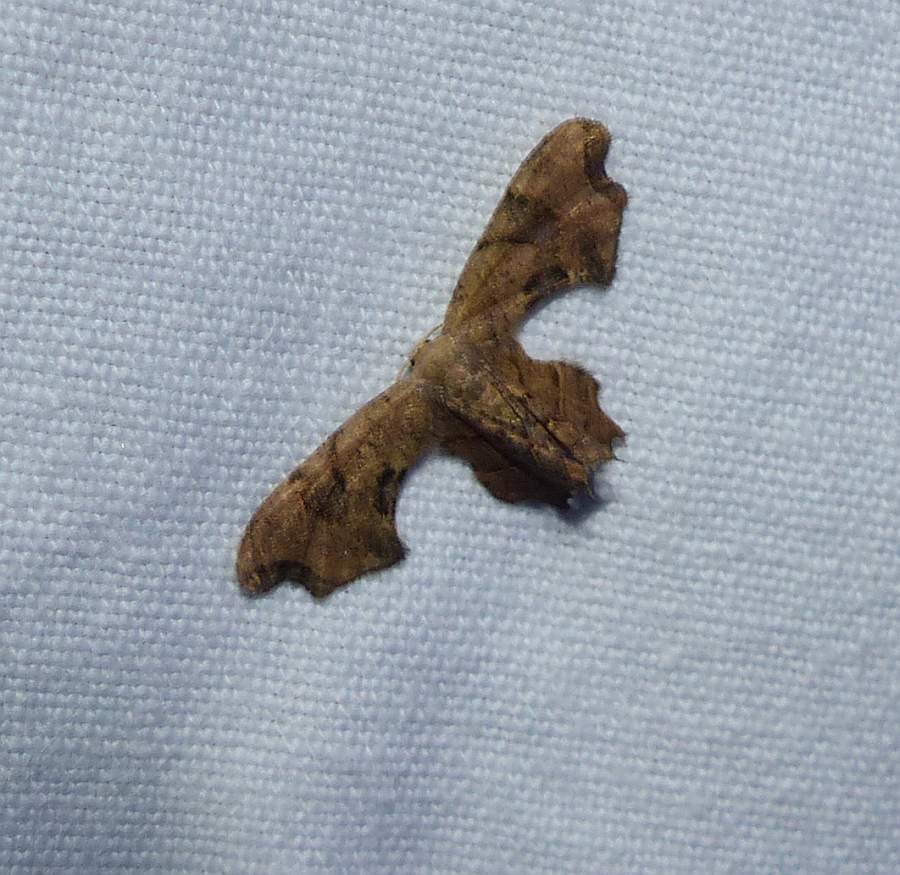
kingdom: Animalia
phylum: Arthropoda
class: Insecta
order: Lepidoptera
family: Uraniidae
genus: Epiplema
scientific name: Epiplema Calledapteryx dryopterata
